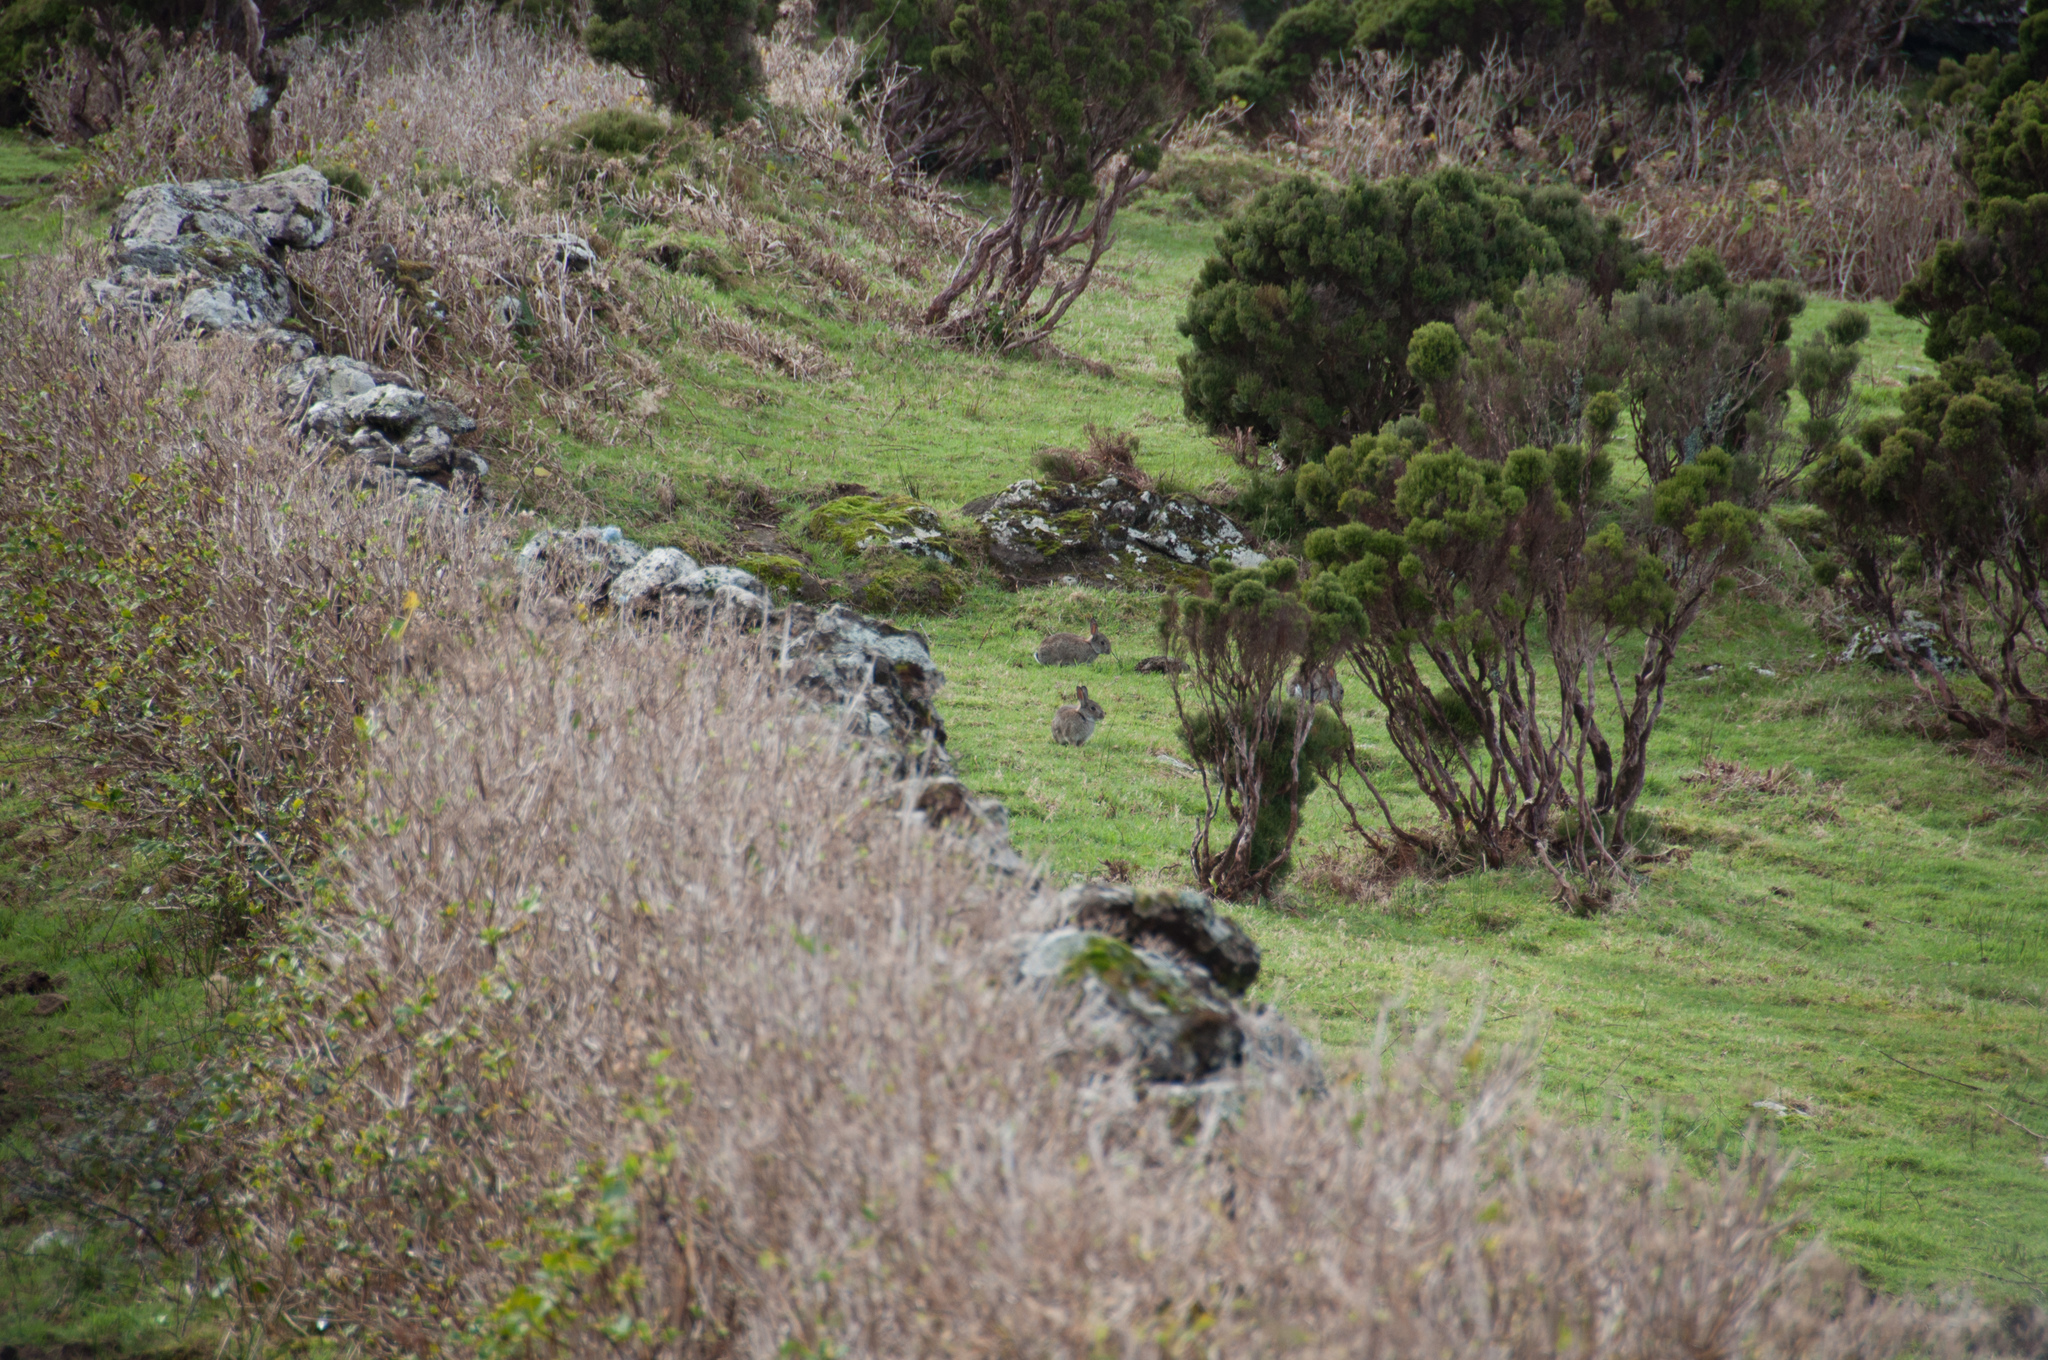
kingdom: Animalia
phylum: Chordata
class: Mammalia
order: Lagomorpha
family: Leporidae
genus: Oryctolagus
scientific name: Oryctolagus cuniculus
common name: European rabbit
